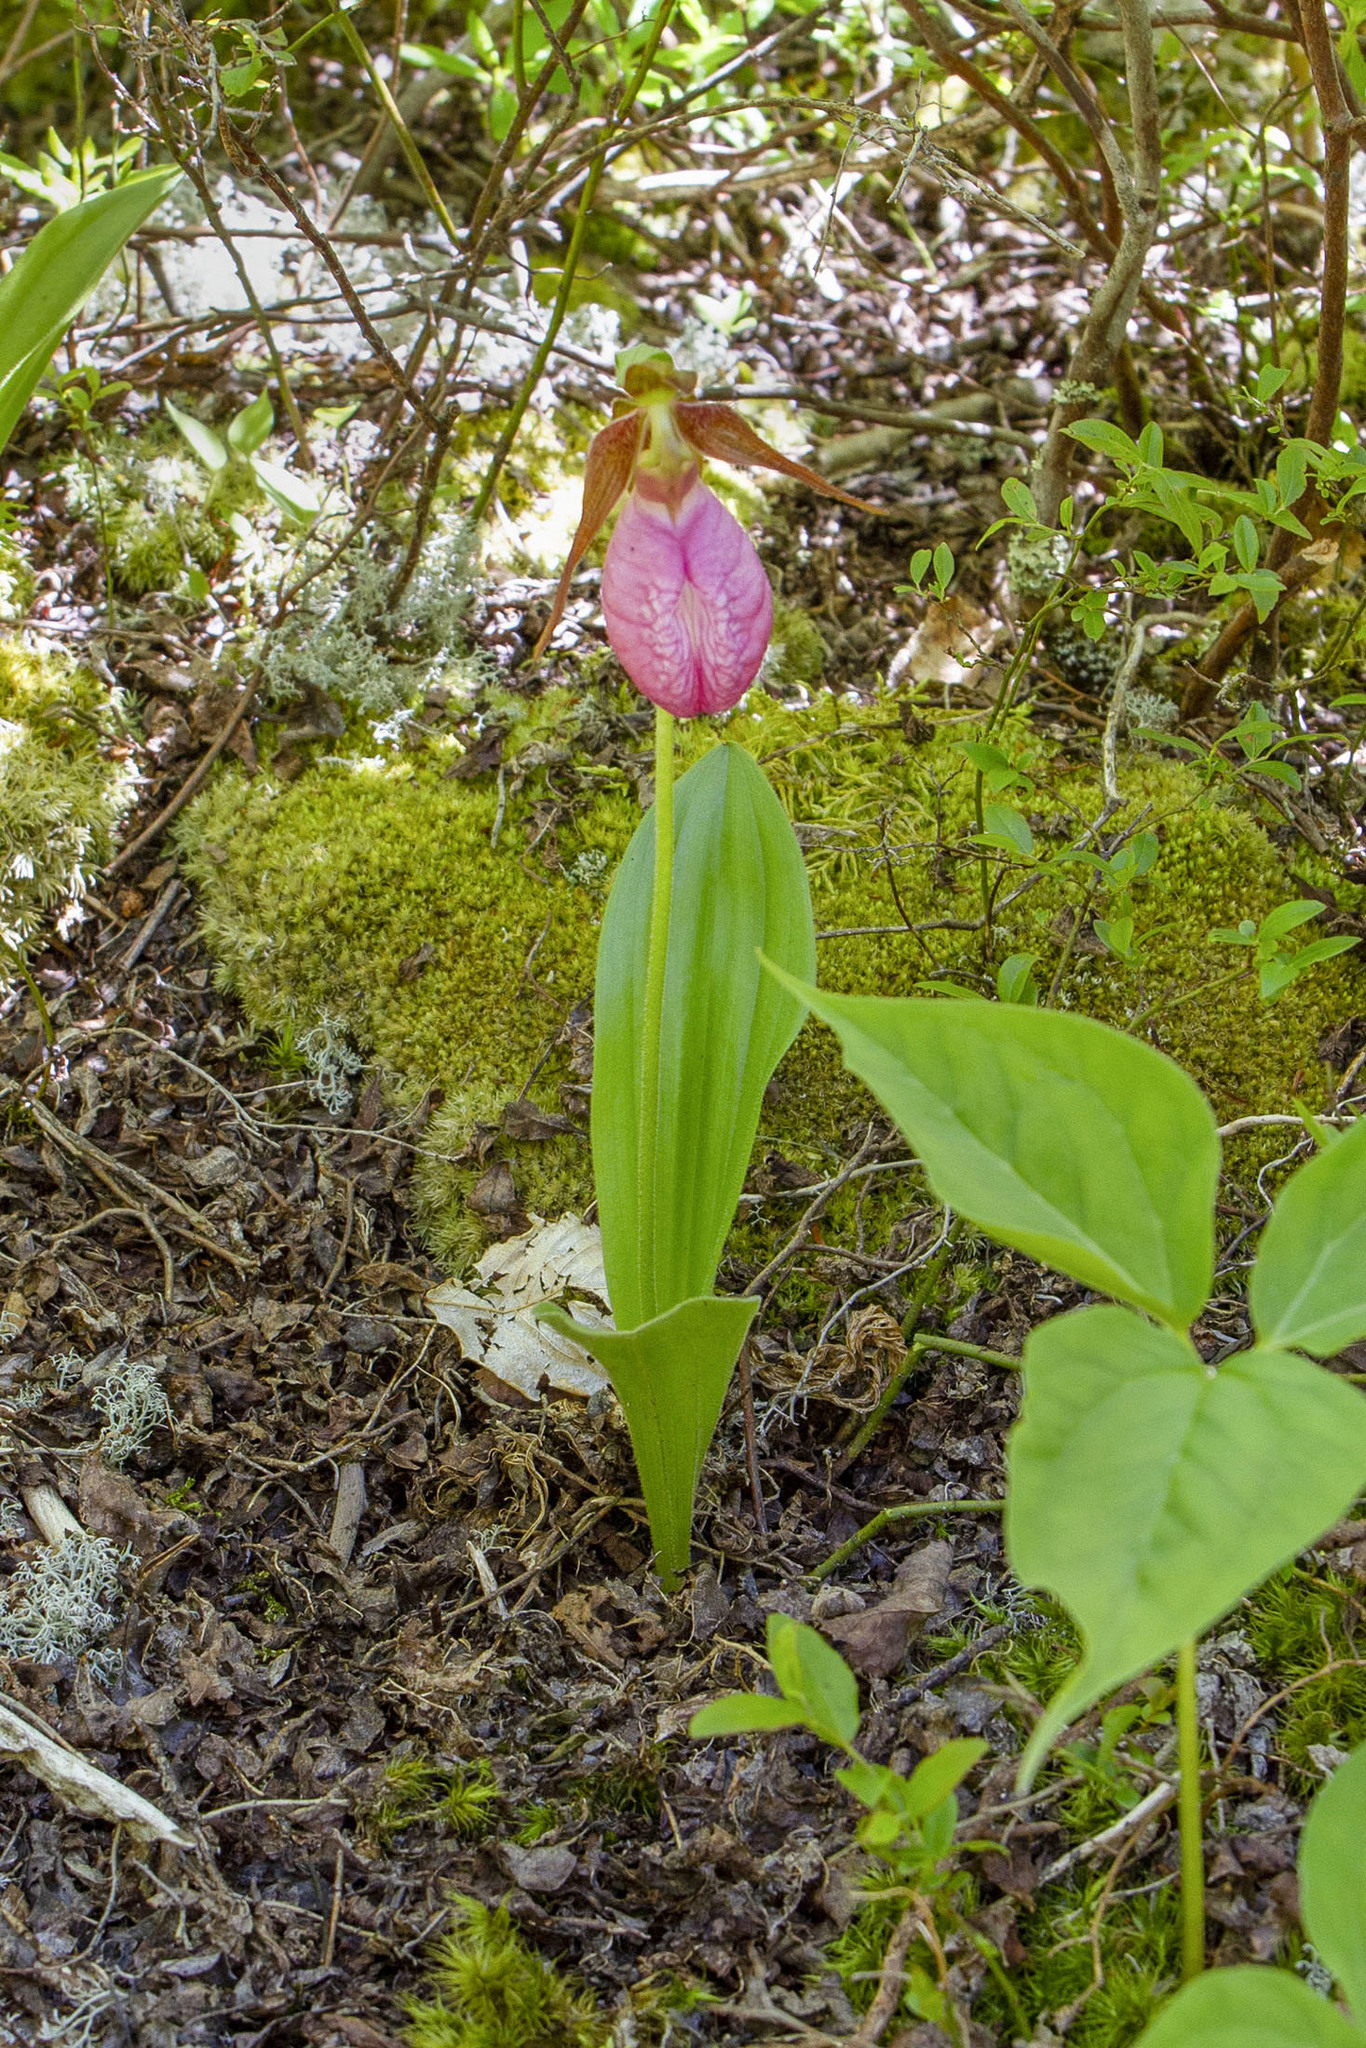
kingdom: Plantae
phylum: Tracheophyta
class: Liliopsida
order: Asparagales
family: Orchidaceae
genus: Cypripedium
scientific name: Cypripedium acaule
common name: Pink lady's-slipper
